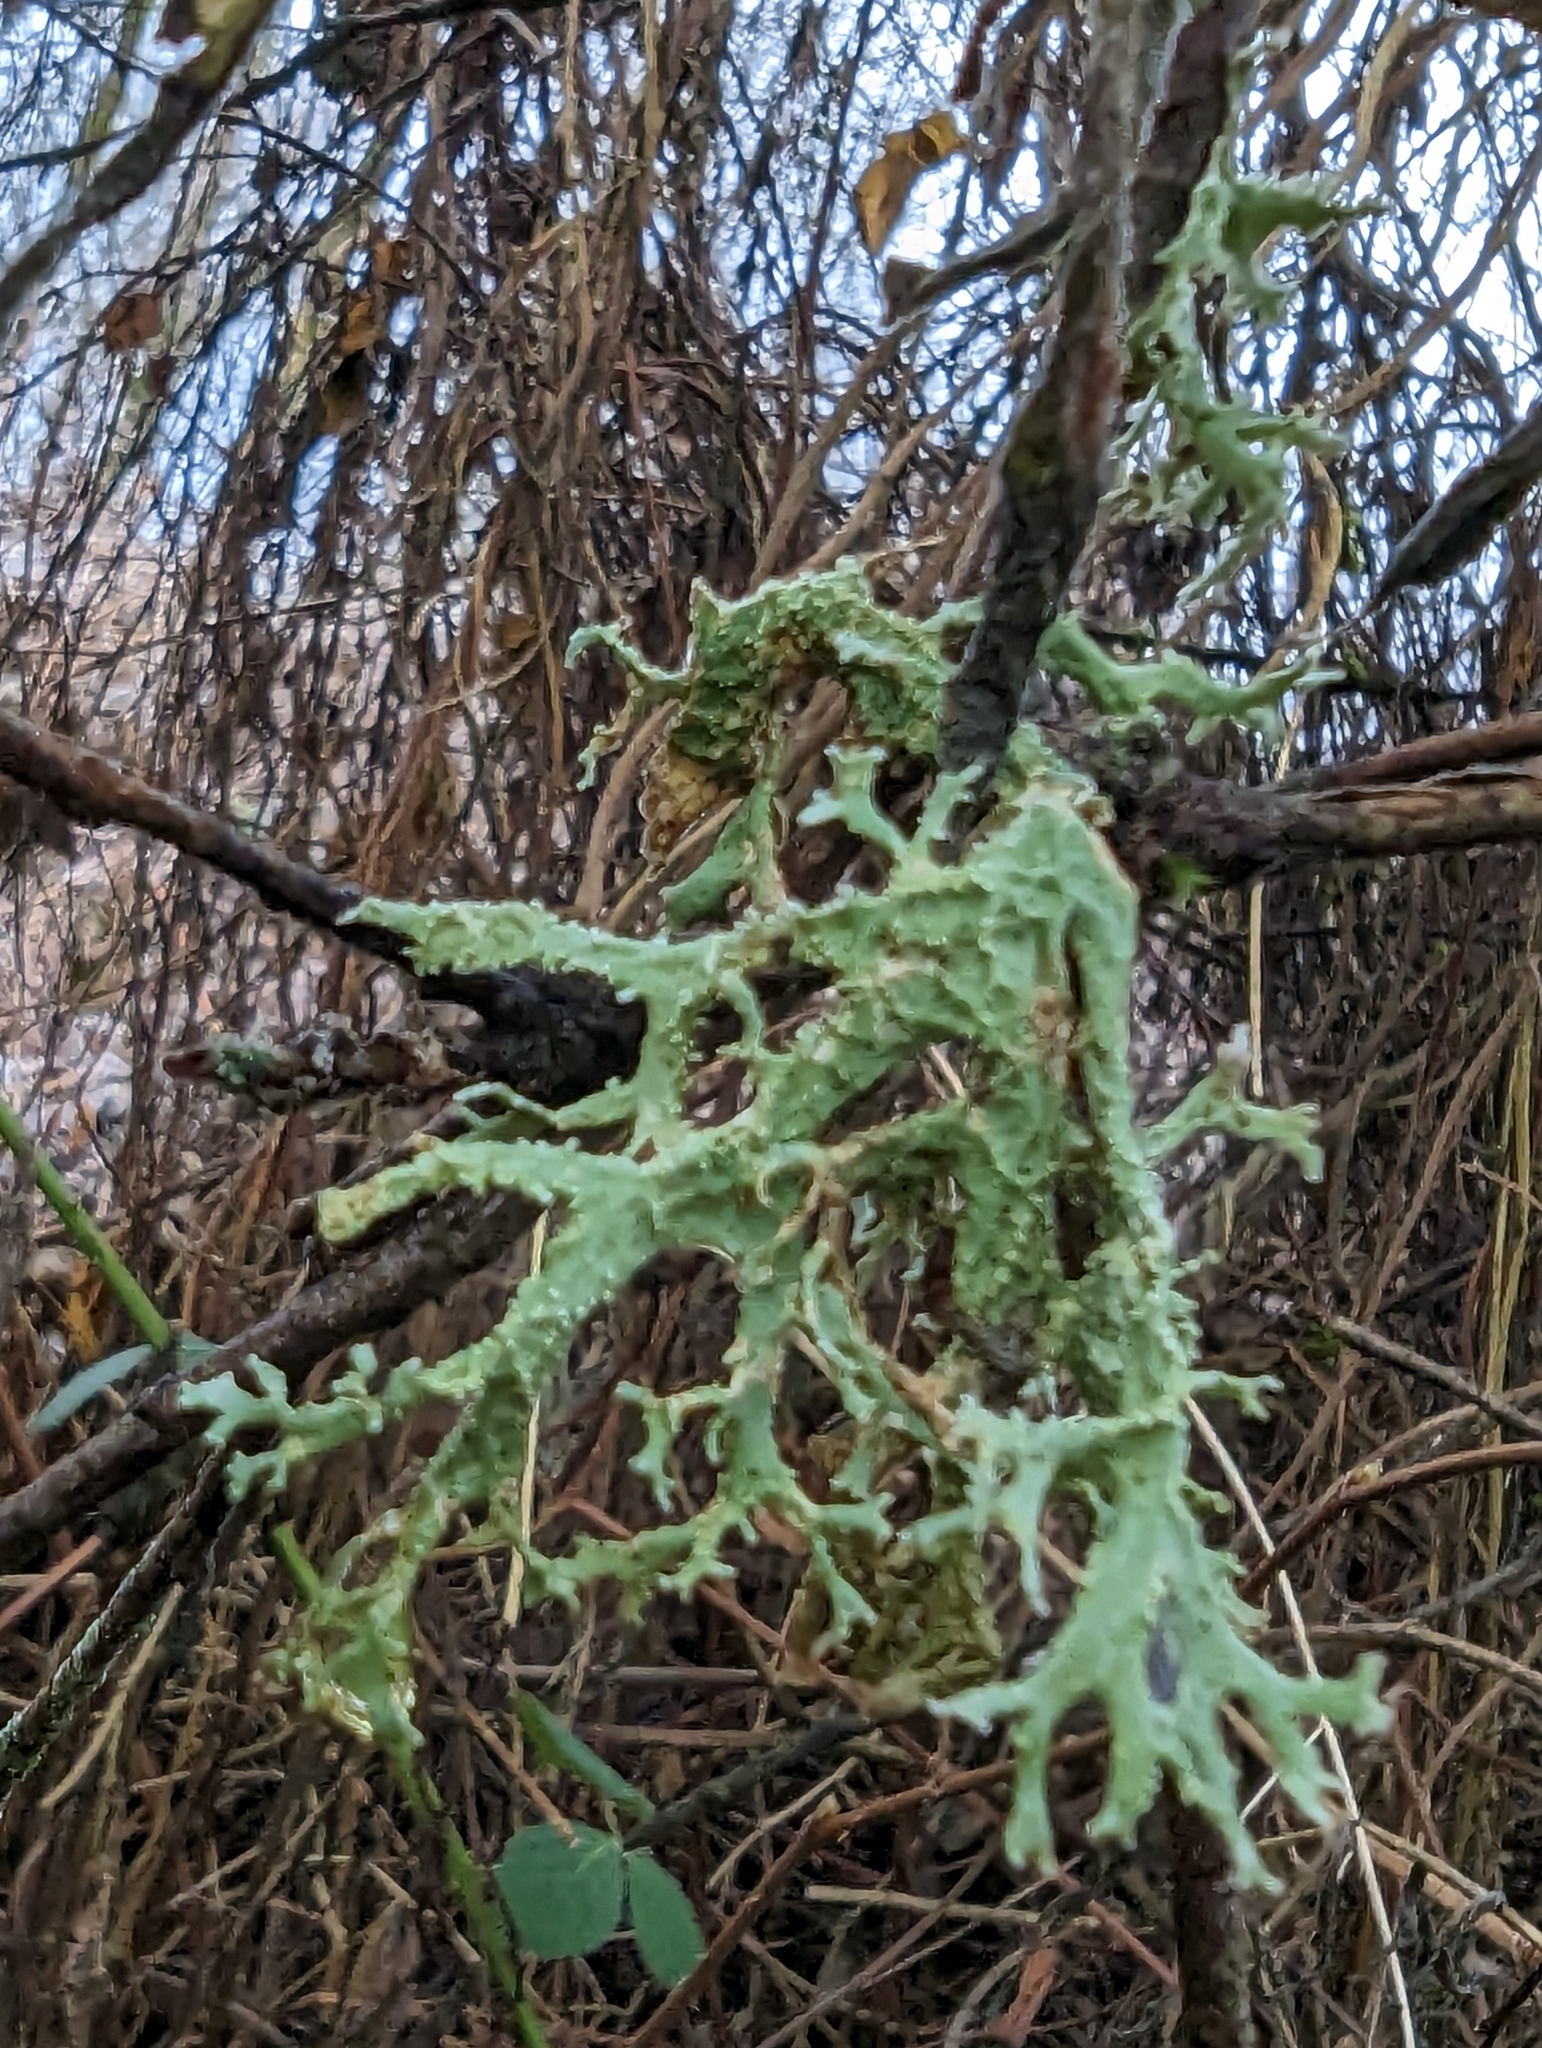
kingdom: Fungi
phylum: Ascomycota
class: Lecanoromycetes
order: Lecanorales
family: Parmeliaceae
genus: Evernia
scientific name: Evernia prunastri
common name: Oak moss
